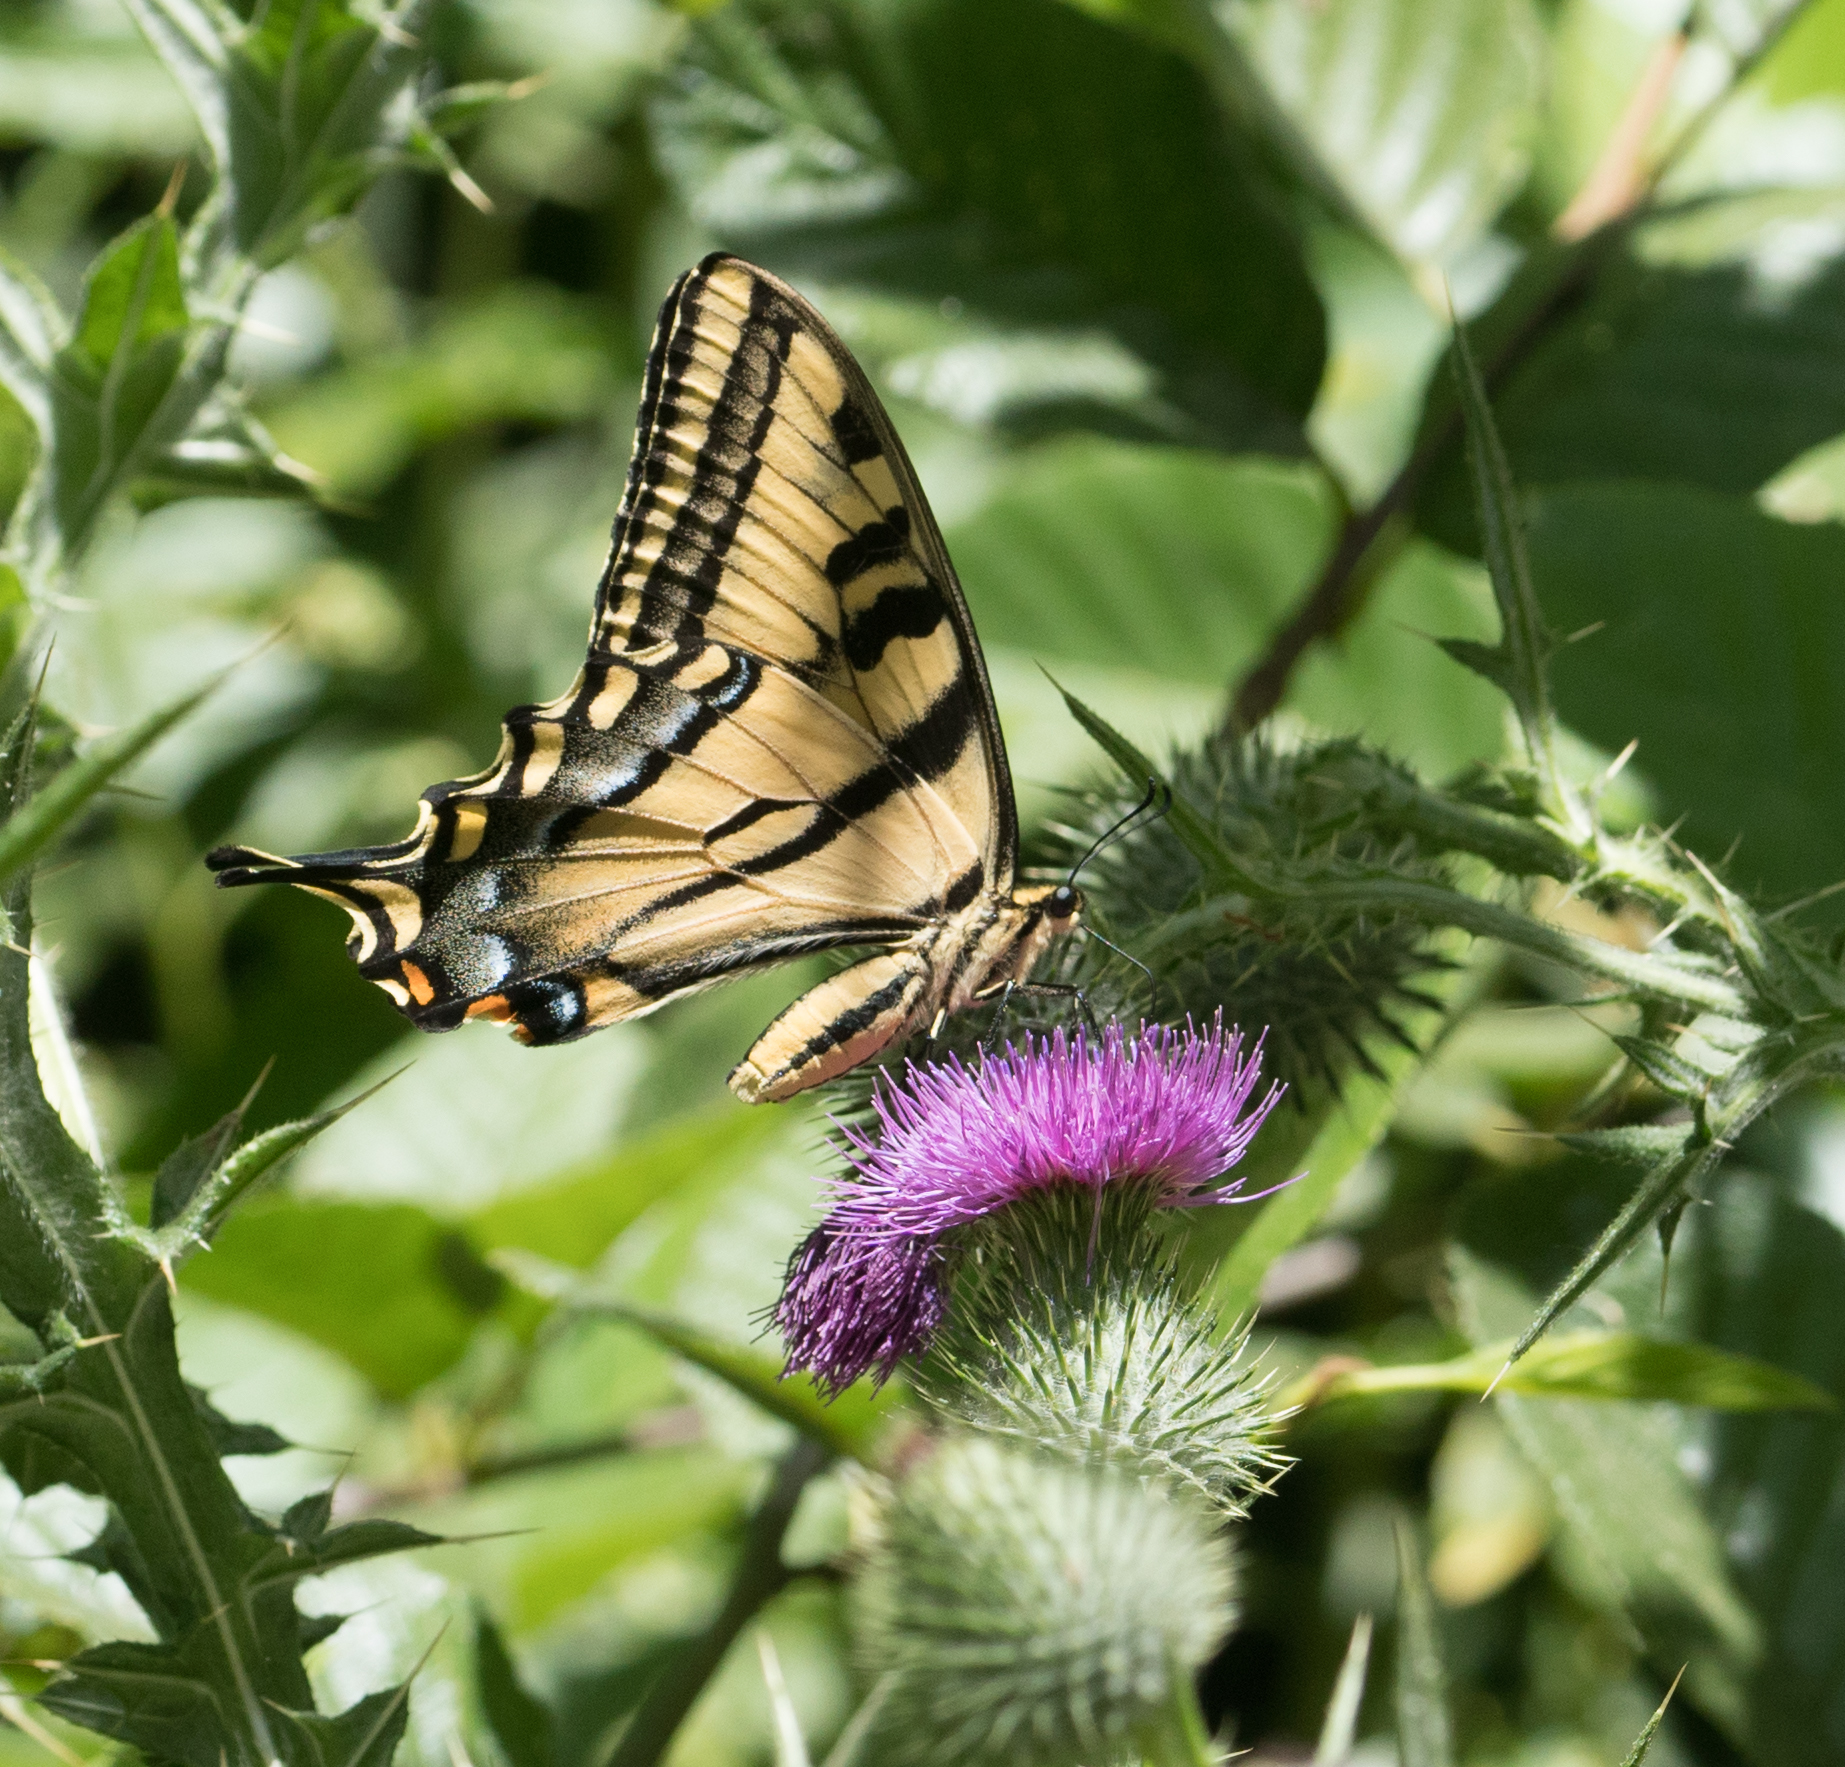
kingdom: Animalia
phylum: Arthropoda
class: Insecta
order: Lepidoptera
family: Papilionidae
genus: Papilio
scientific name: Papilio rutulus
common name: Western tiger swallowtail
